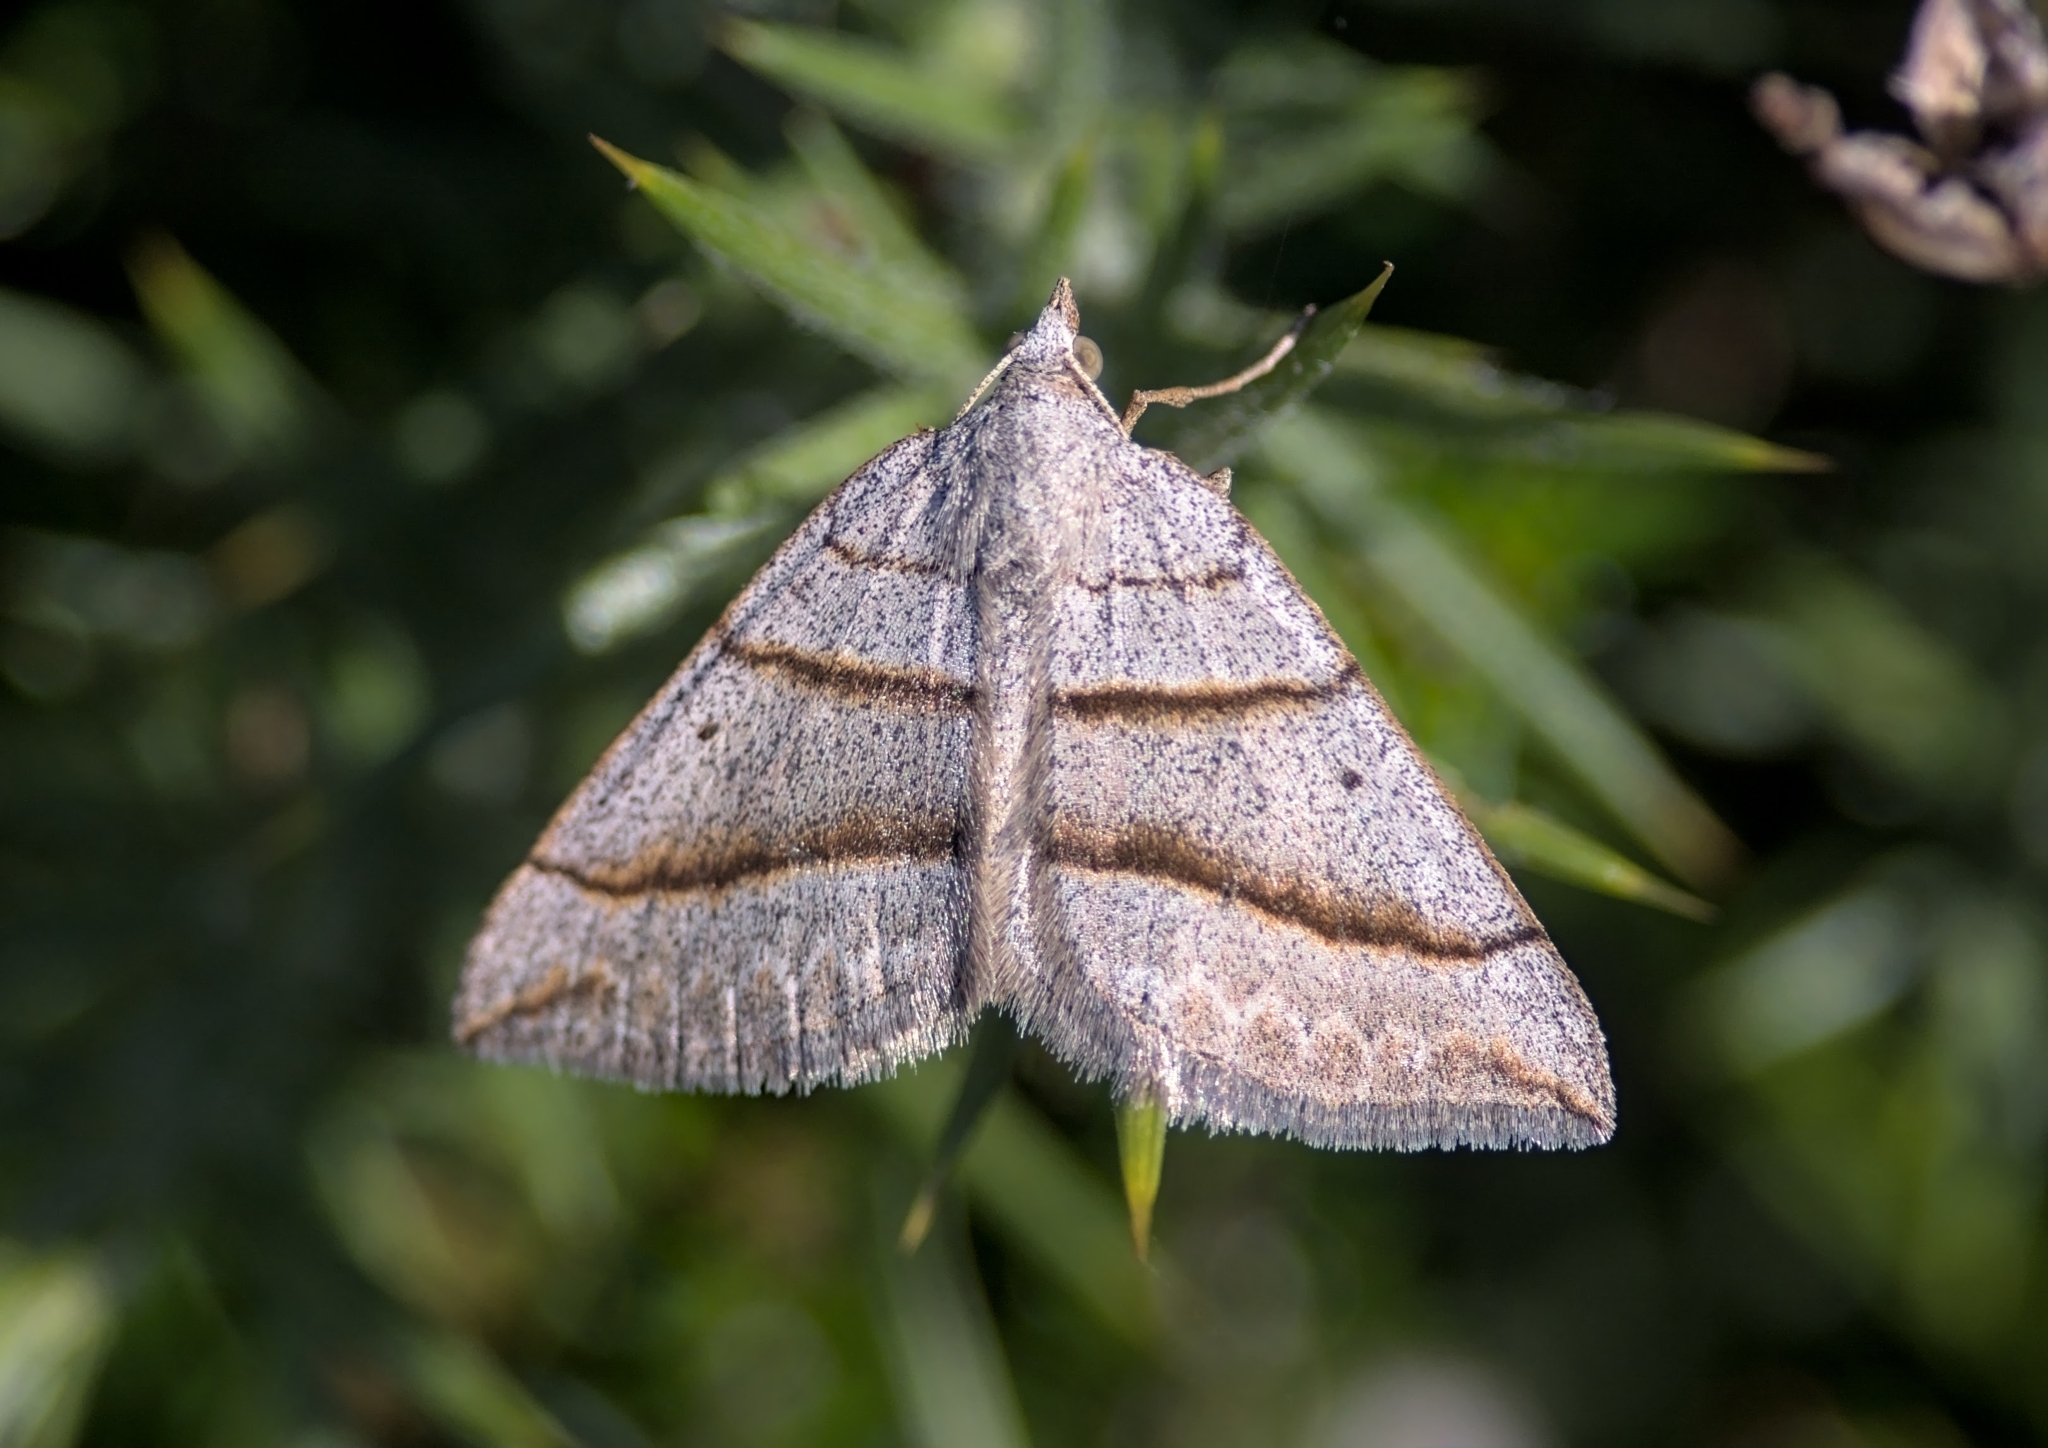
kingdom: Animalia
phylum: Arthropoda
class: Insecta
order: Lepidoptera
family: Geometridae
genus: Scotopteryx
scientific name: Scotopteryx chenopodiata
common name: Shaded broad-bar
